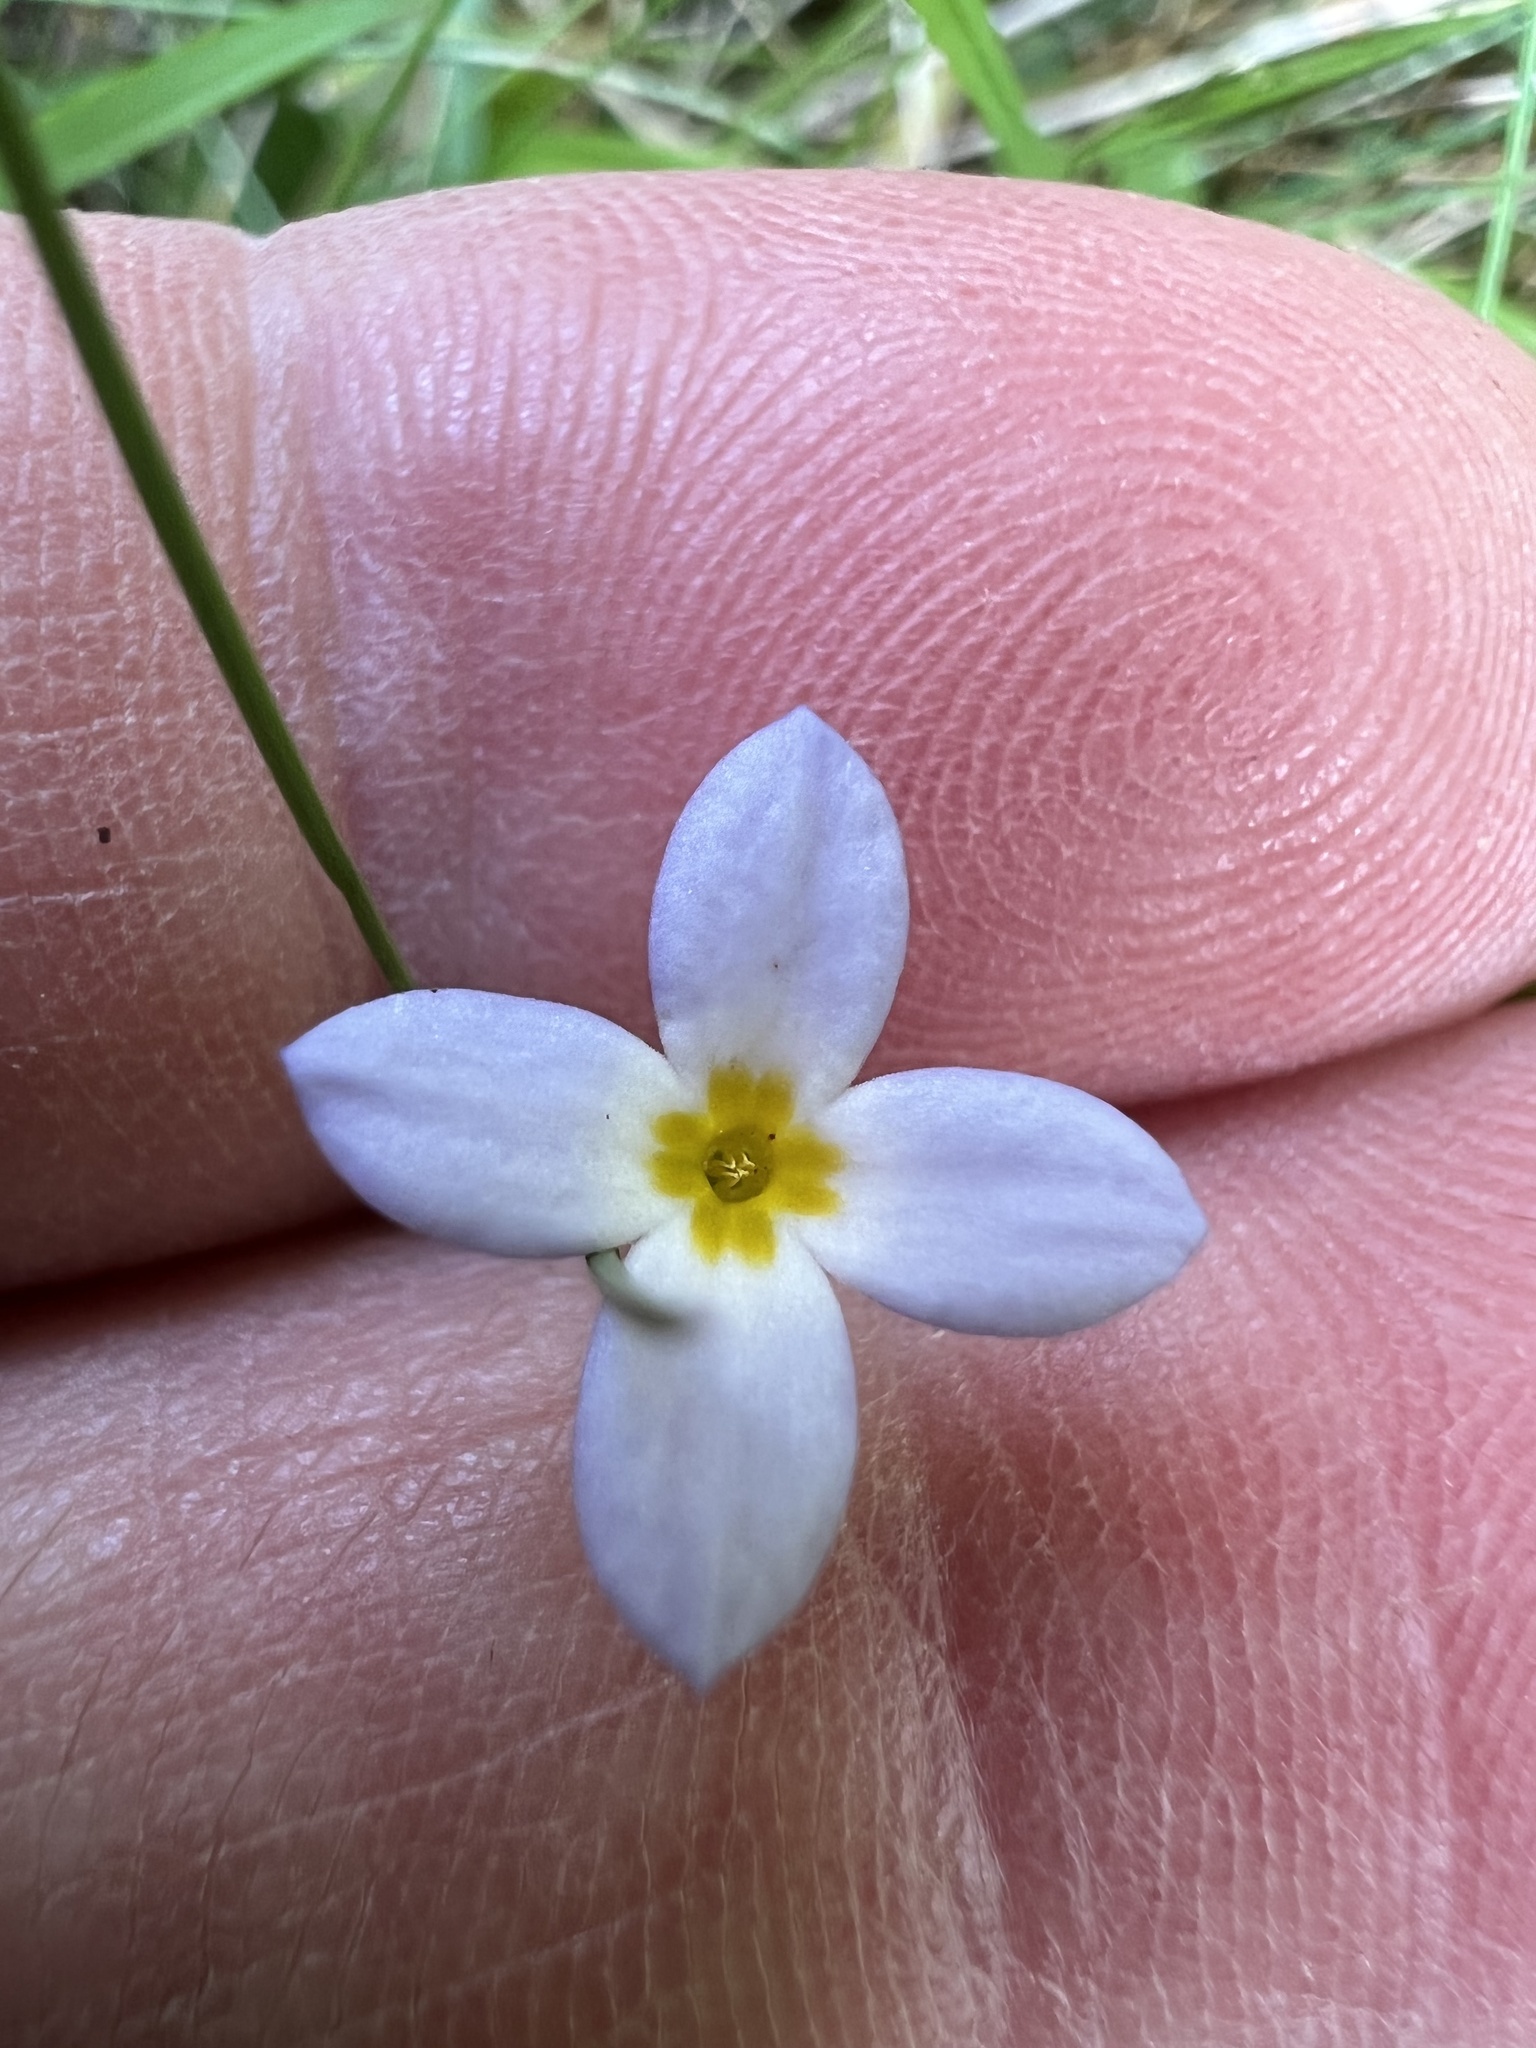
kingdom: Plantae
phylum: Tracheophyta
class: Magnoliopsida
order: Gentianales
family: Rubiaceae
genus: Houstonia
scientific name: Houstonia caerulea
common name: Bluets
